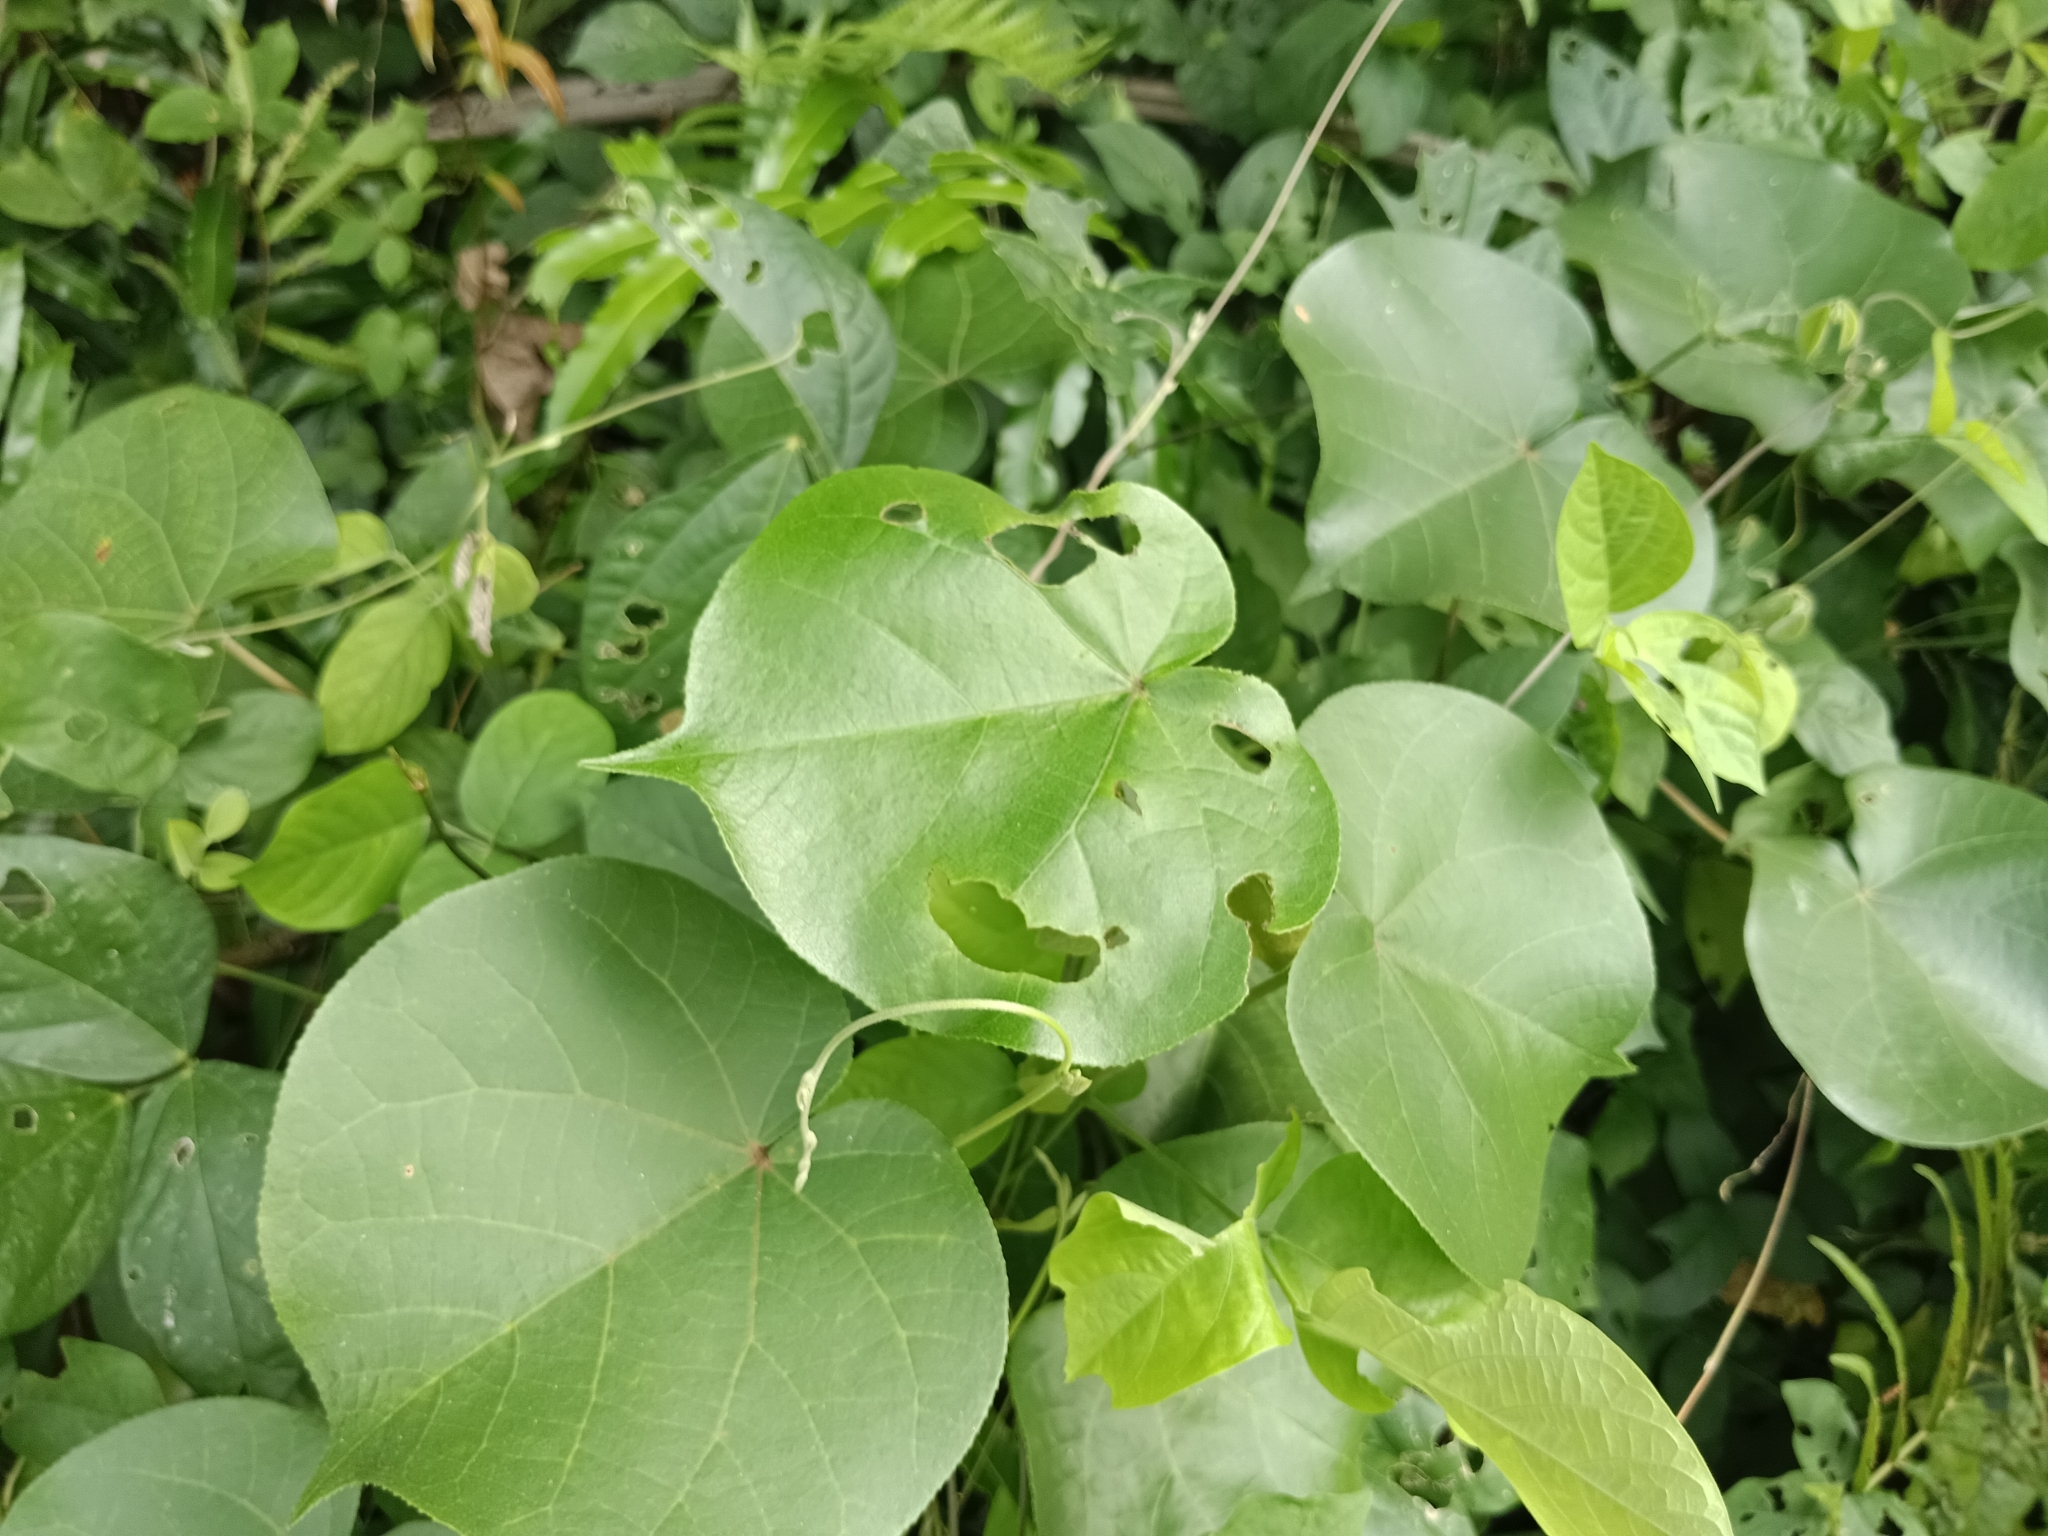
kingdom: Plantae
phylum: Tracheophyta
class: Magnoliopsida
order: Malvales
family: Malvaceae
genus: Talipariti
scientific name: Talipariti tiliaceum
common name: Sea hibiscus
